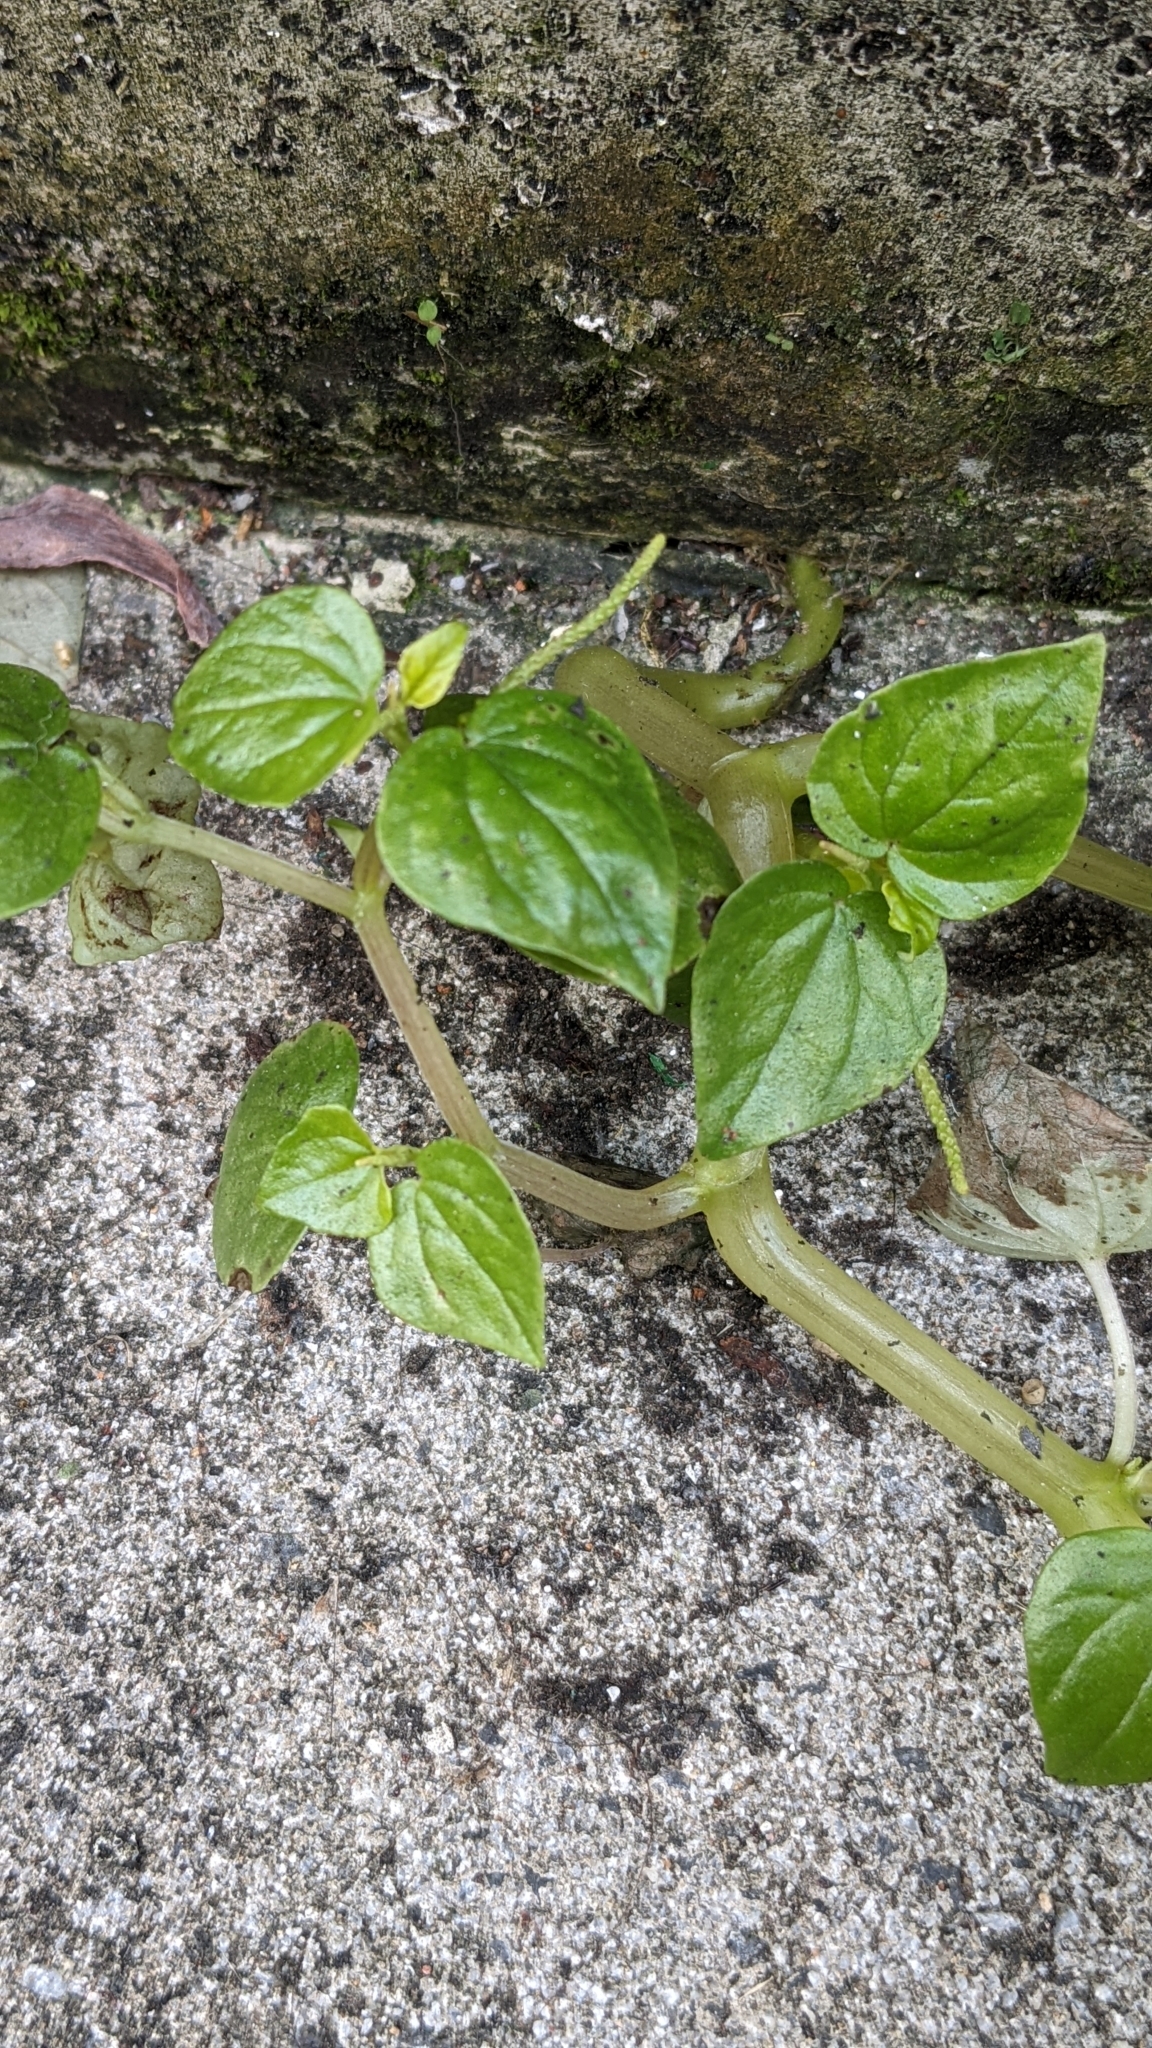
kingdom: Plantae
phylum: Tracheophyta
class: Magnoliopsida
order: Piperales
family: Piperaceae
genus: Peperomia
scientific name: Peperomia pellucida
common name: Man to man
